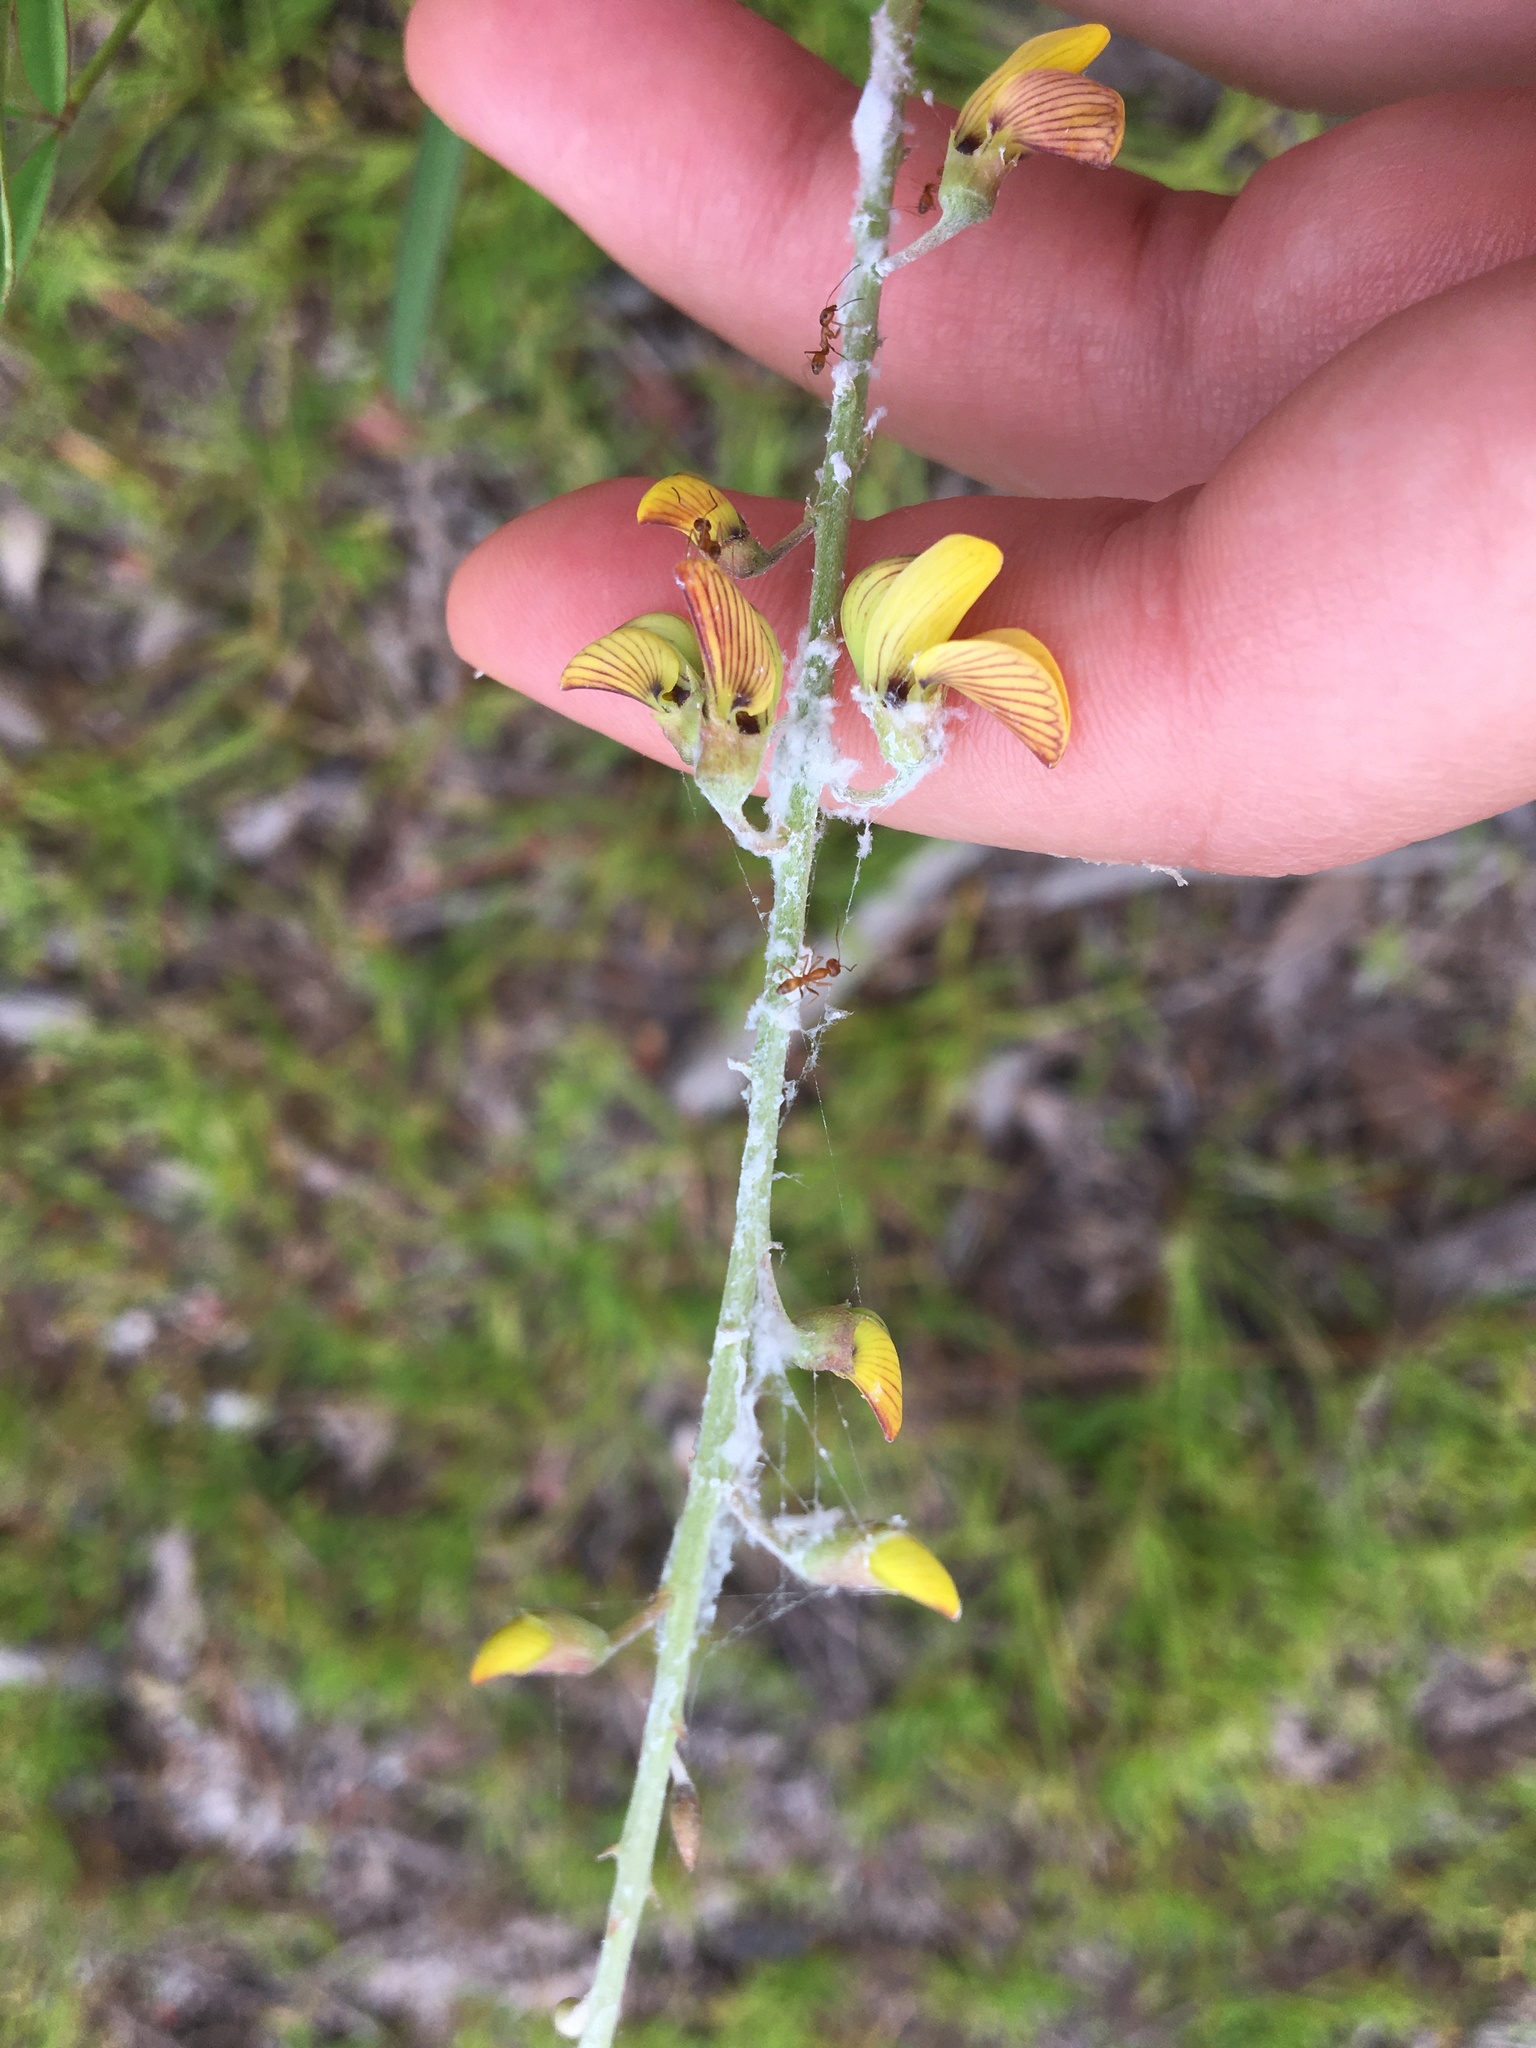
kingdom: Animalia
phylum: Arthropoda
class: Insecta
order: Hymenoptera
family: Formicidae
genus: Dorymyrmex
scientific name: Dorymyrmex bureni
